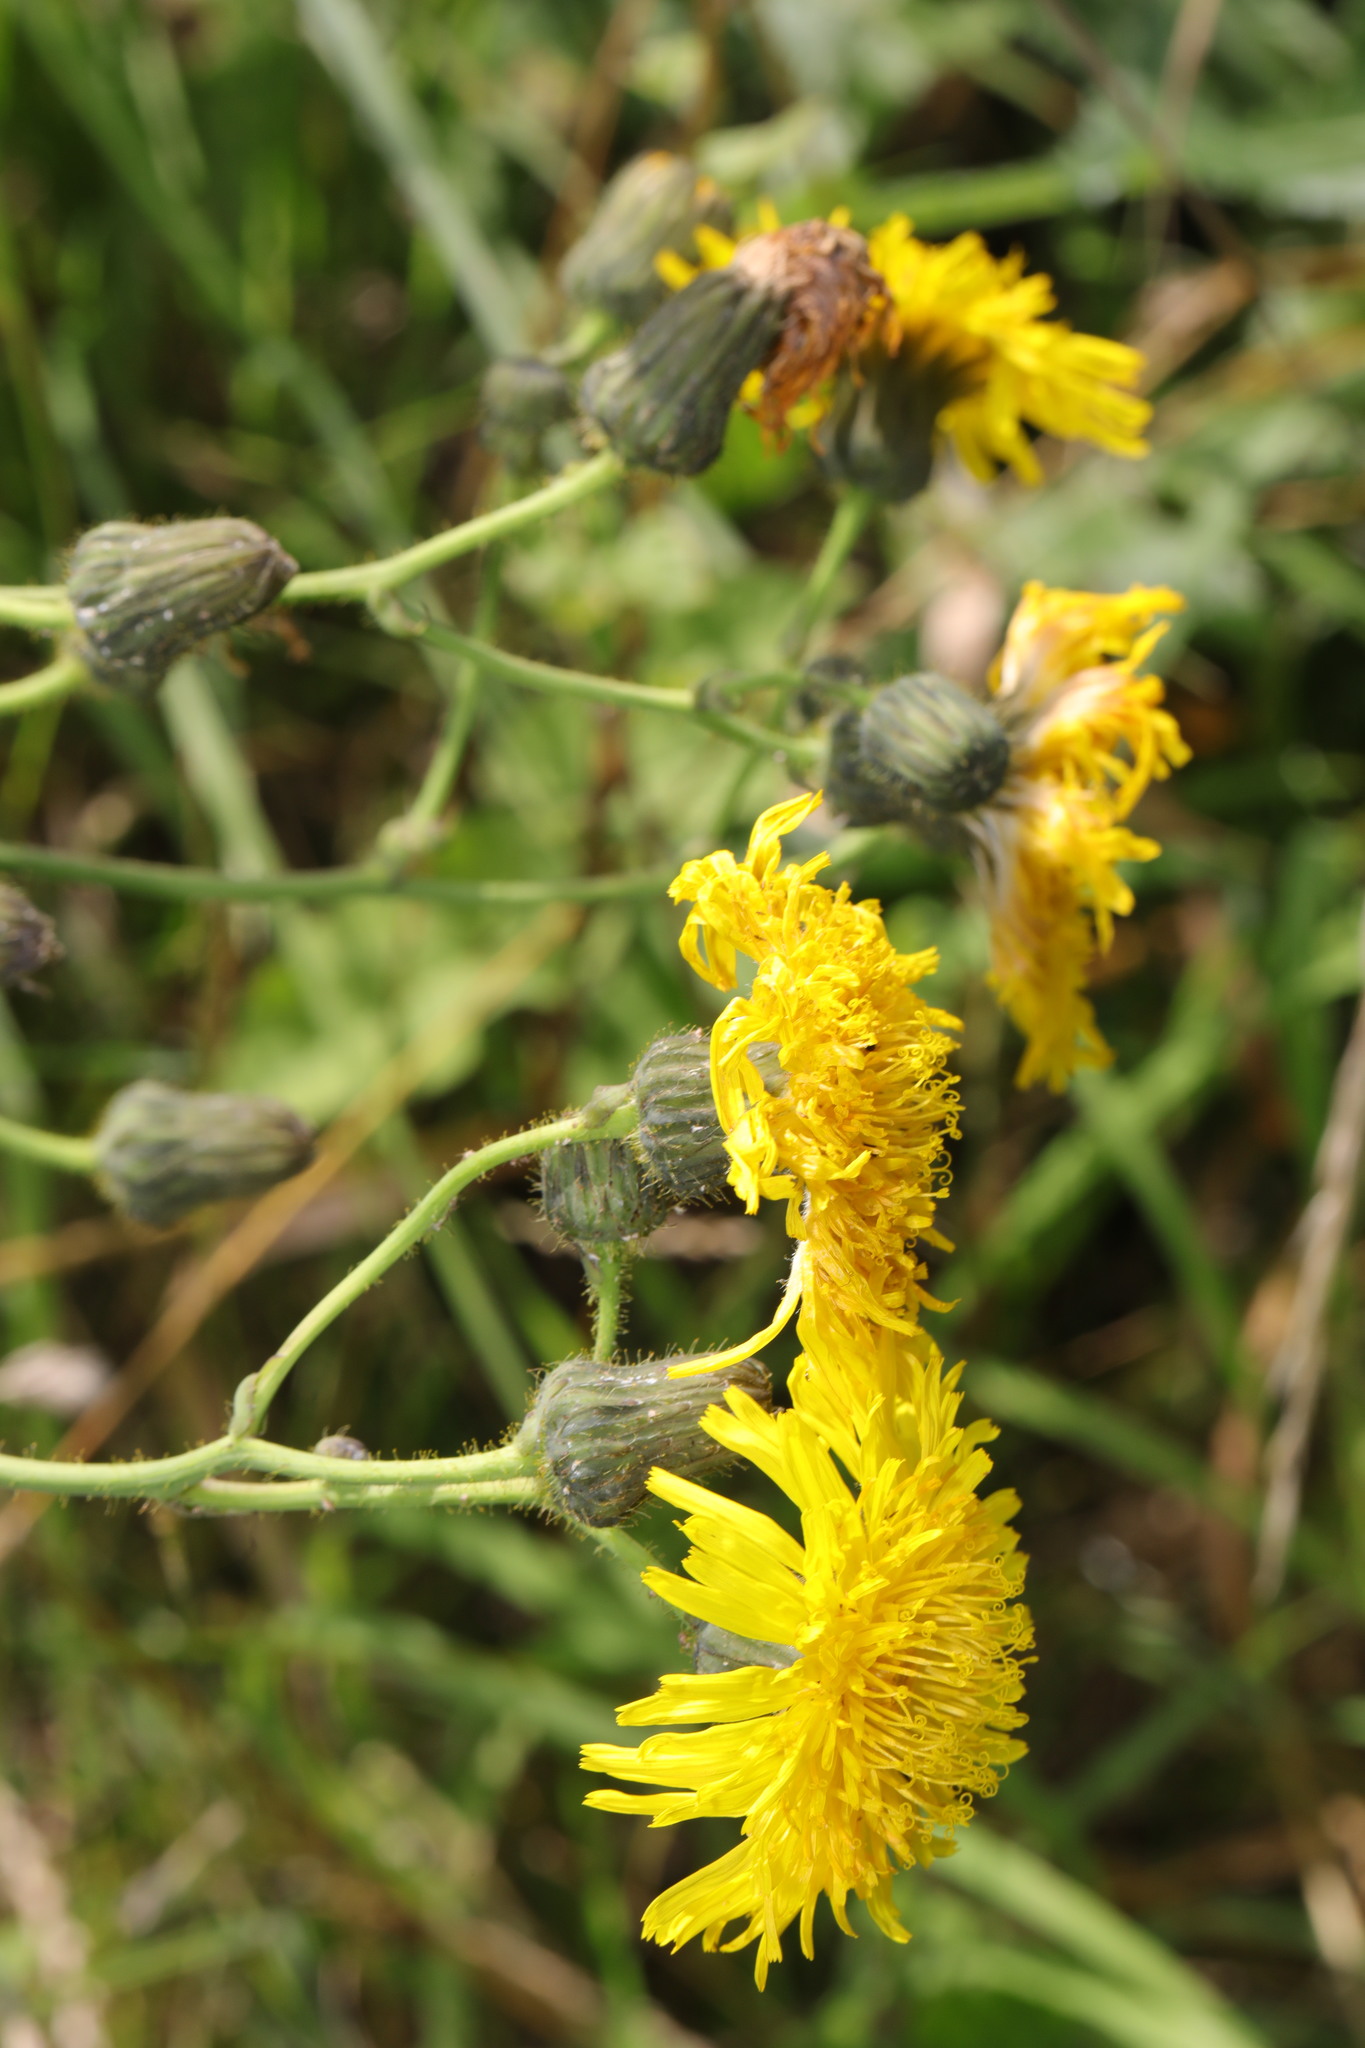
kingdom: Plantae
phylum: Tracheophyta
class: Magnoliopsida
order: Asterales
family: Asteraceae
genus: Sonchus
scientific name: Sonchus arvensis
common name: Perennial sow-thistle
